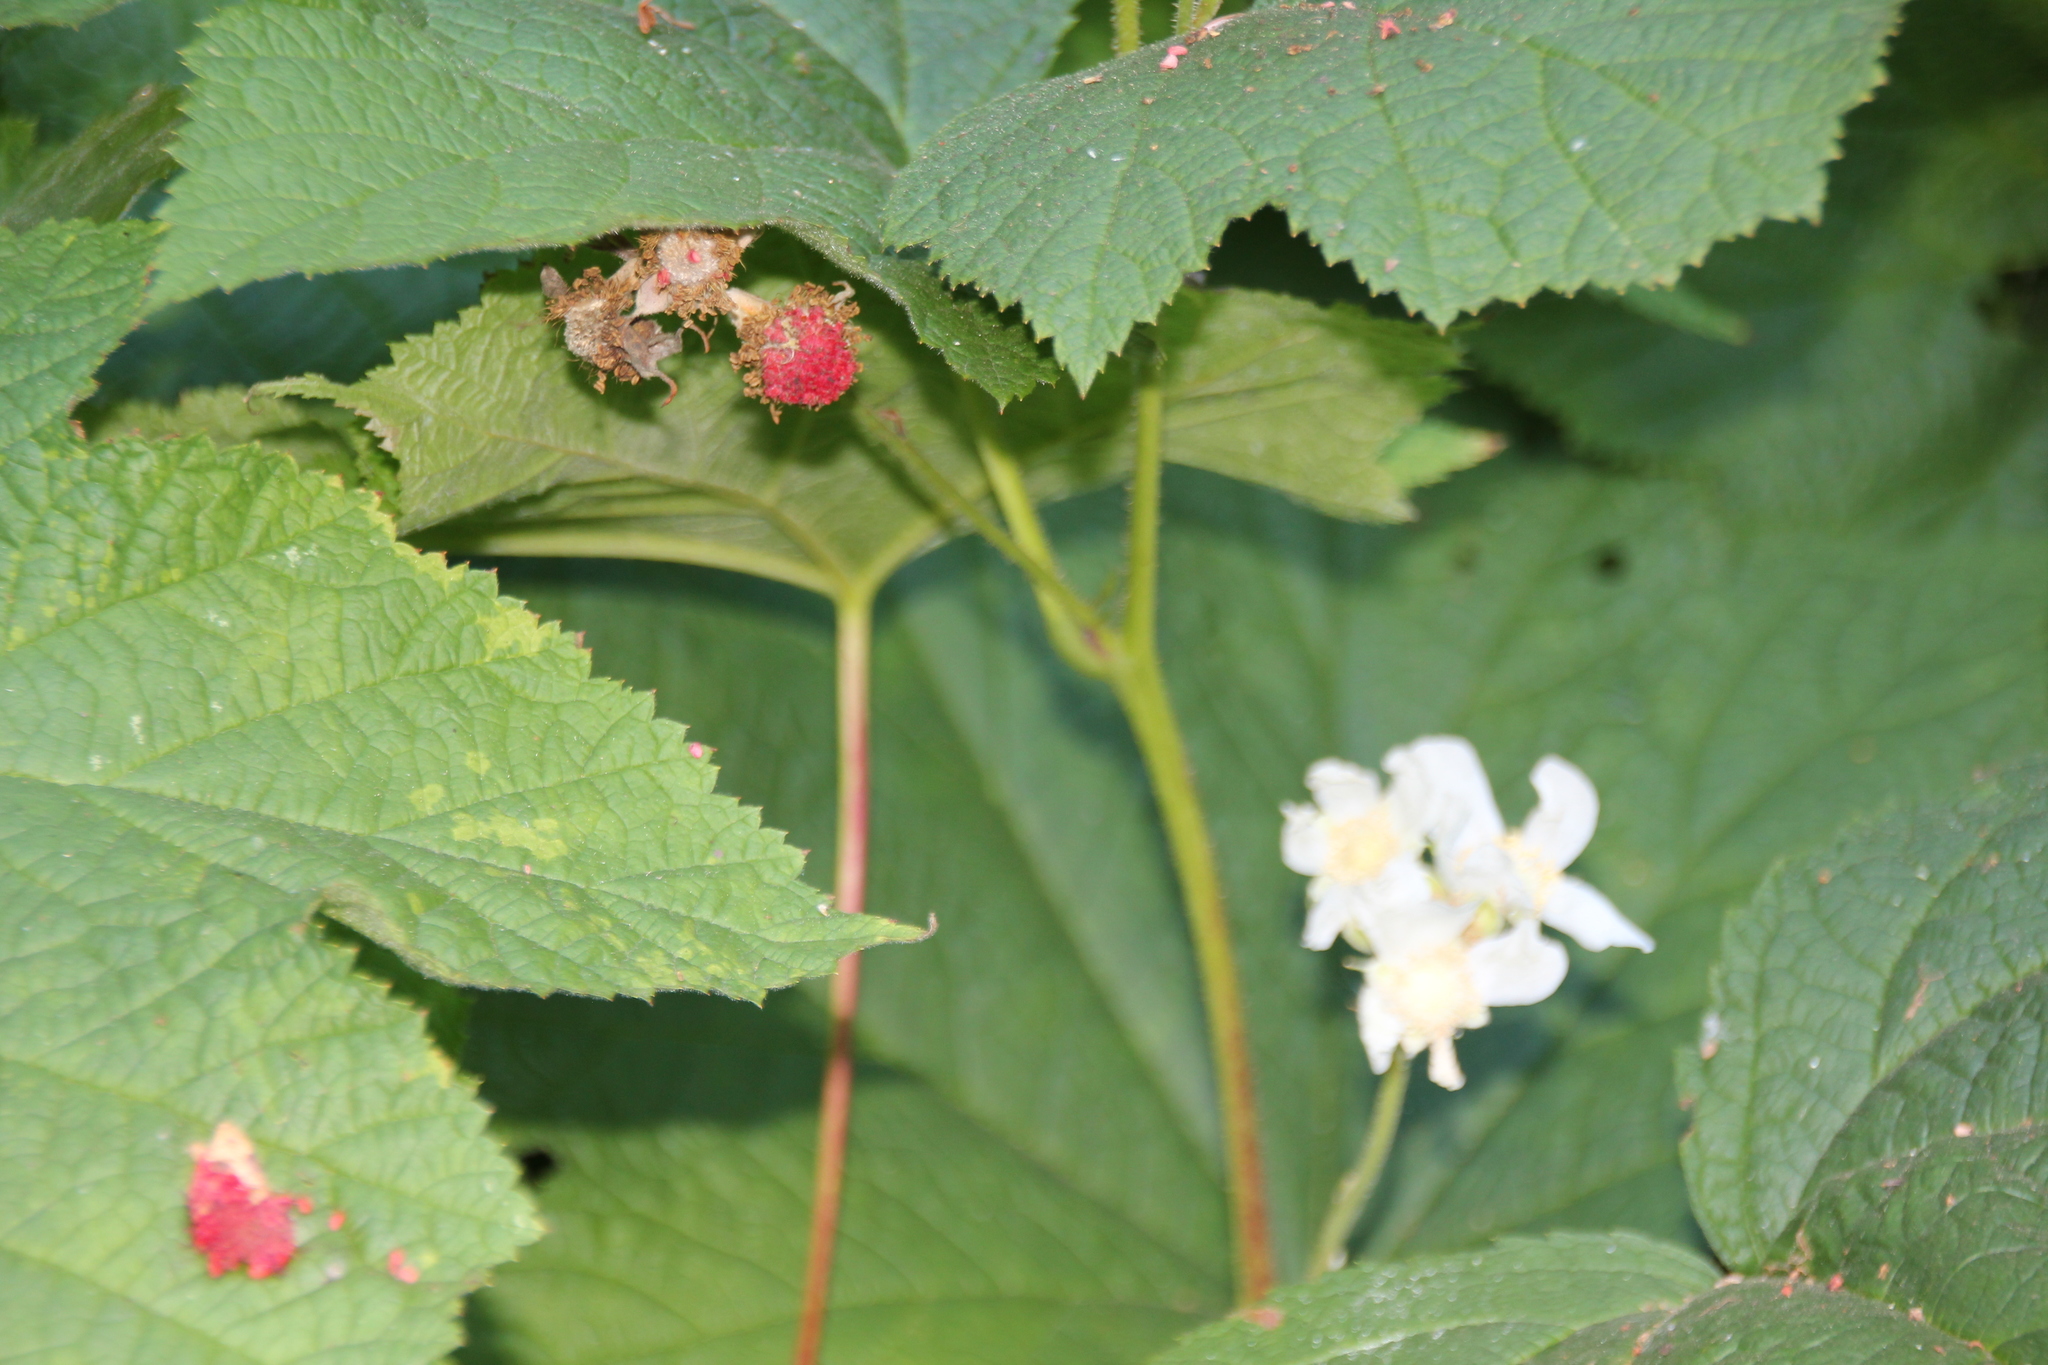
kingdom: Plantae
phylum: Tracheophyta
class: Magnoliopsida
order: Rosales
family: Rosaceae
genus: Rubus
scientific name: Rubus parviflorus
